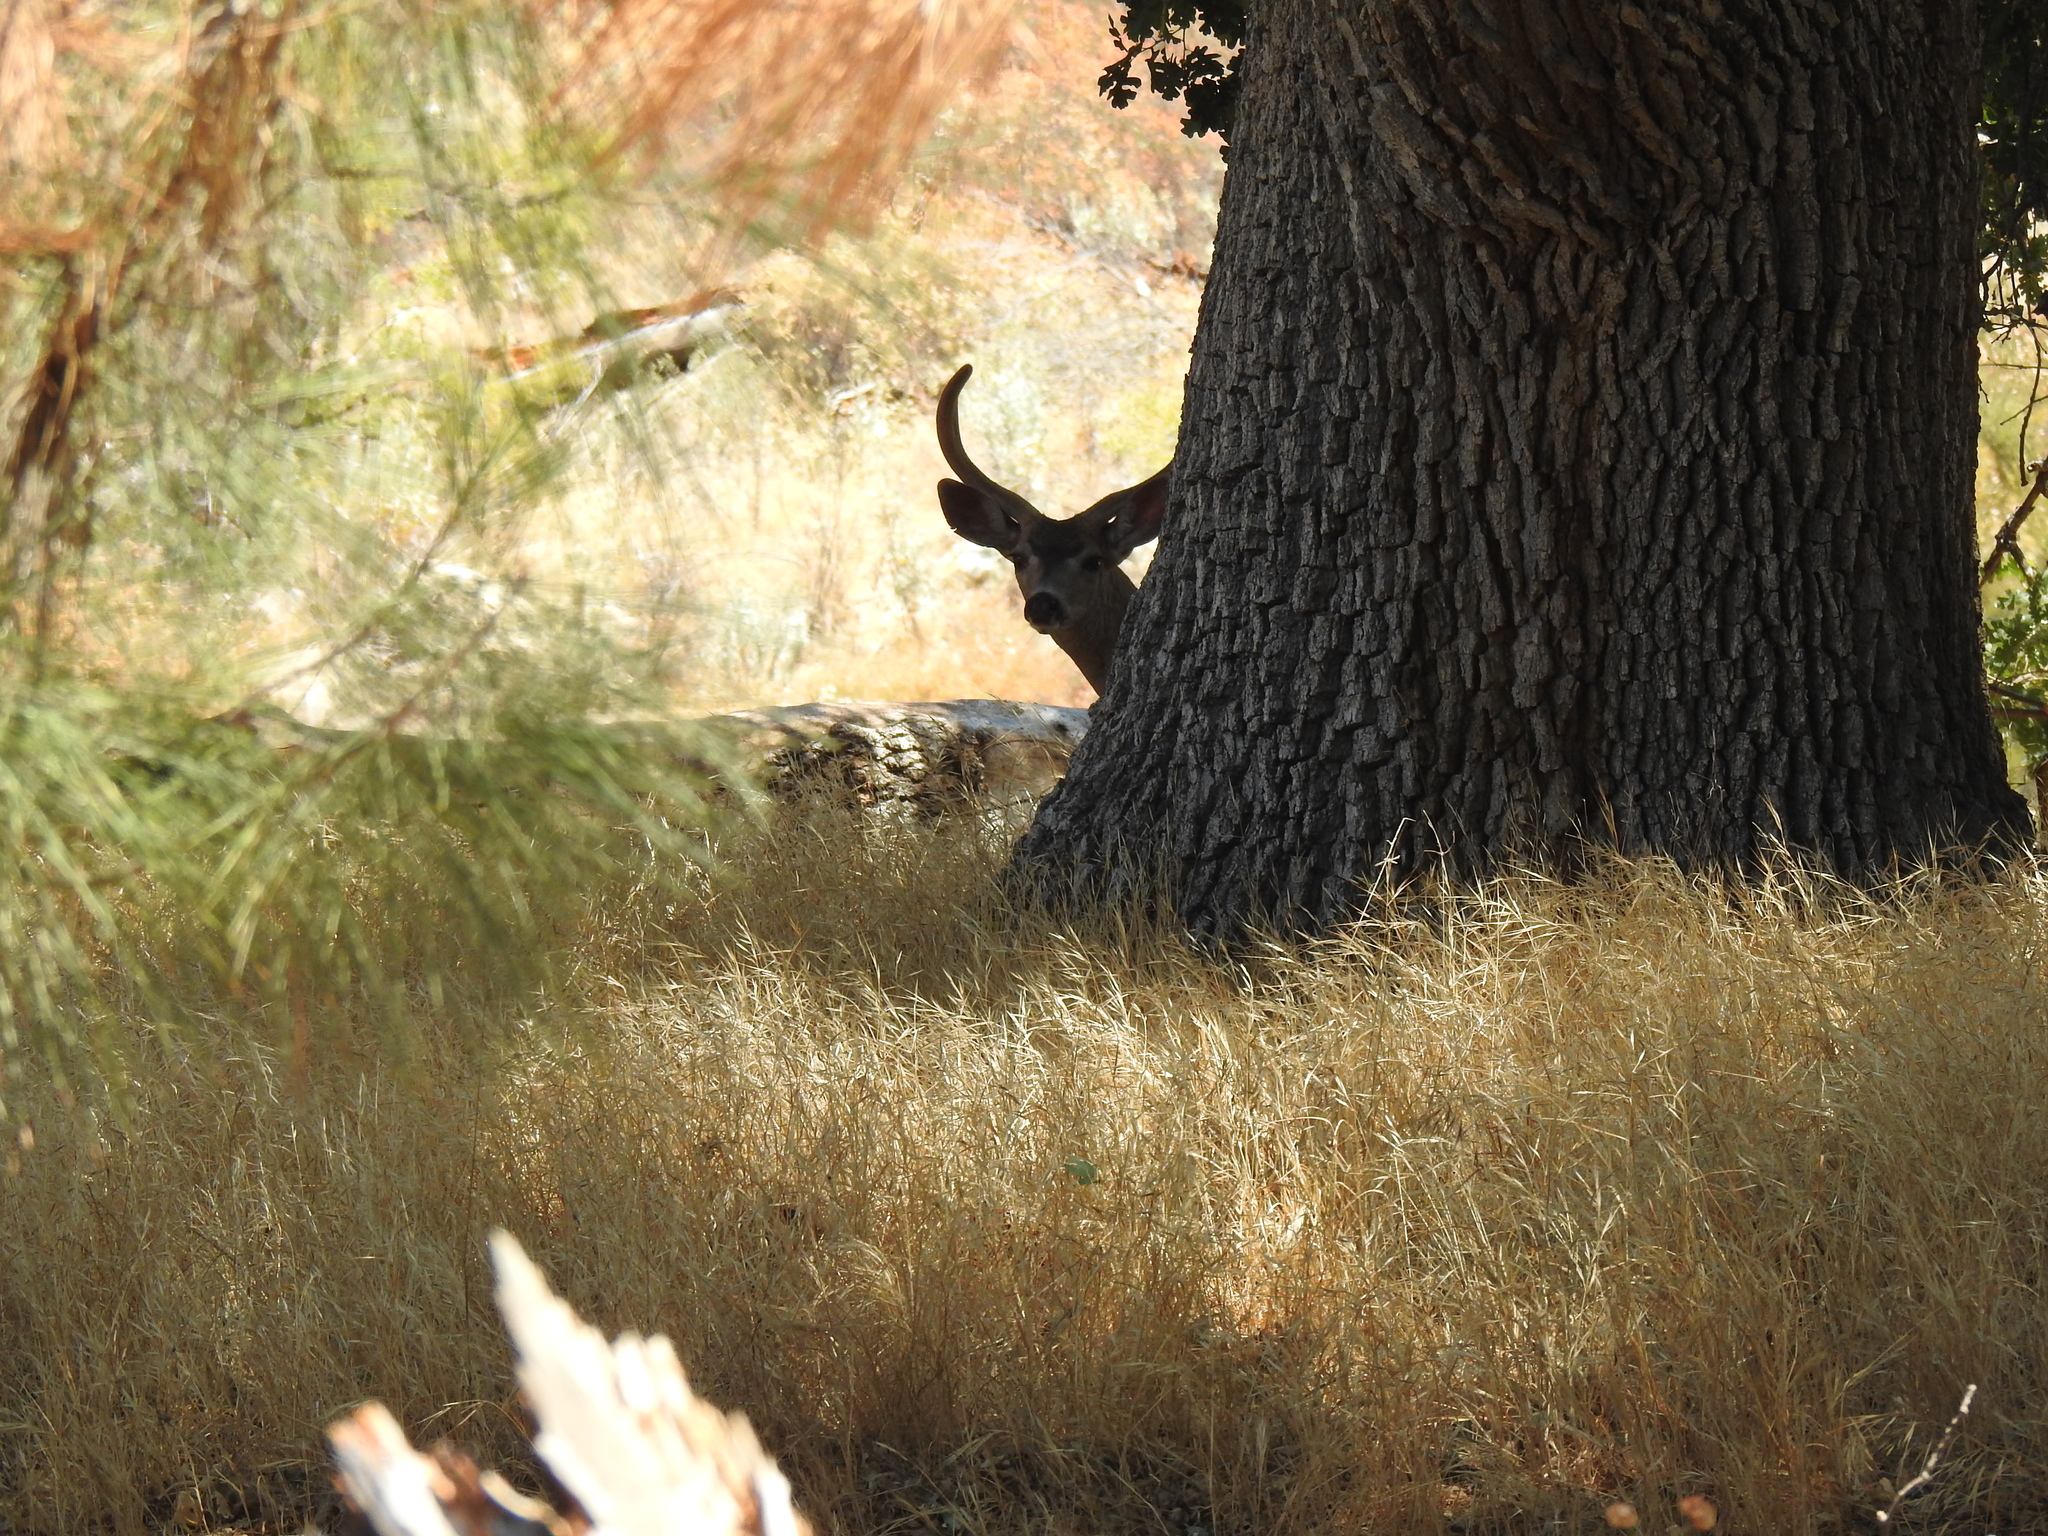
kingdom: Animalia
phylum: Chordata
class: Mammalia
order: Artiodactyla
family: Cervidae
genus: Odocoileus
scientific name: Odocoileus hemionus
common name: Mule deer
